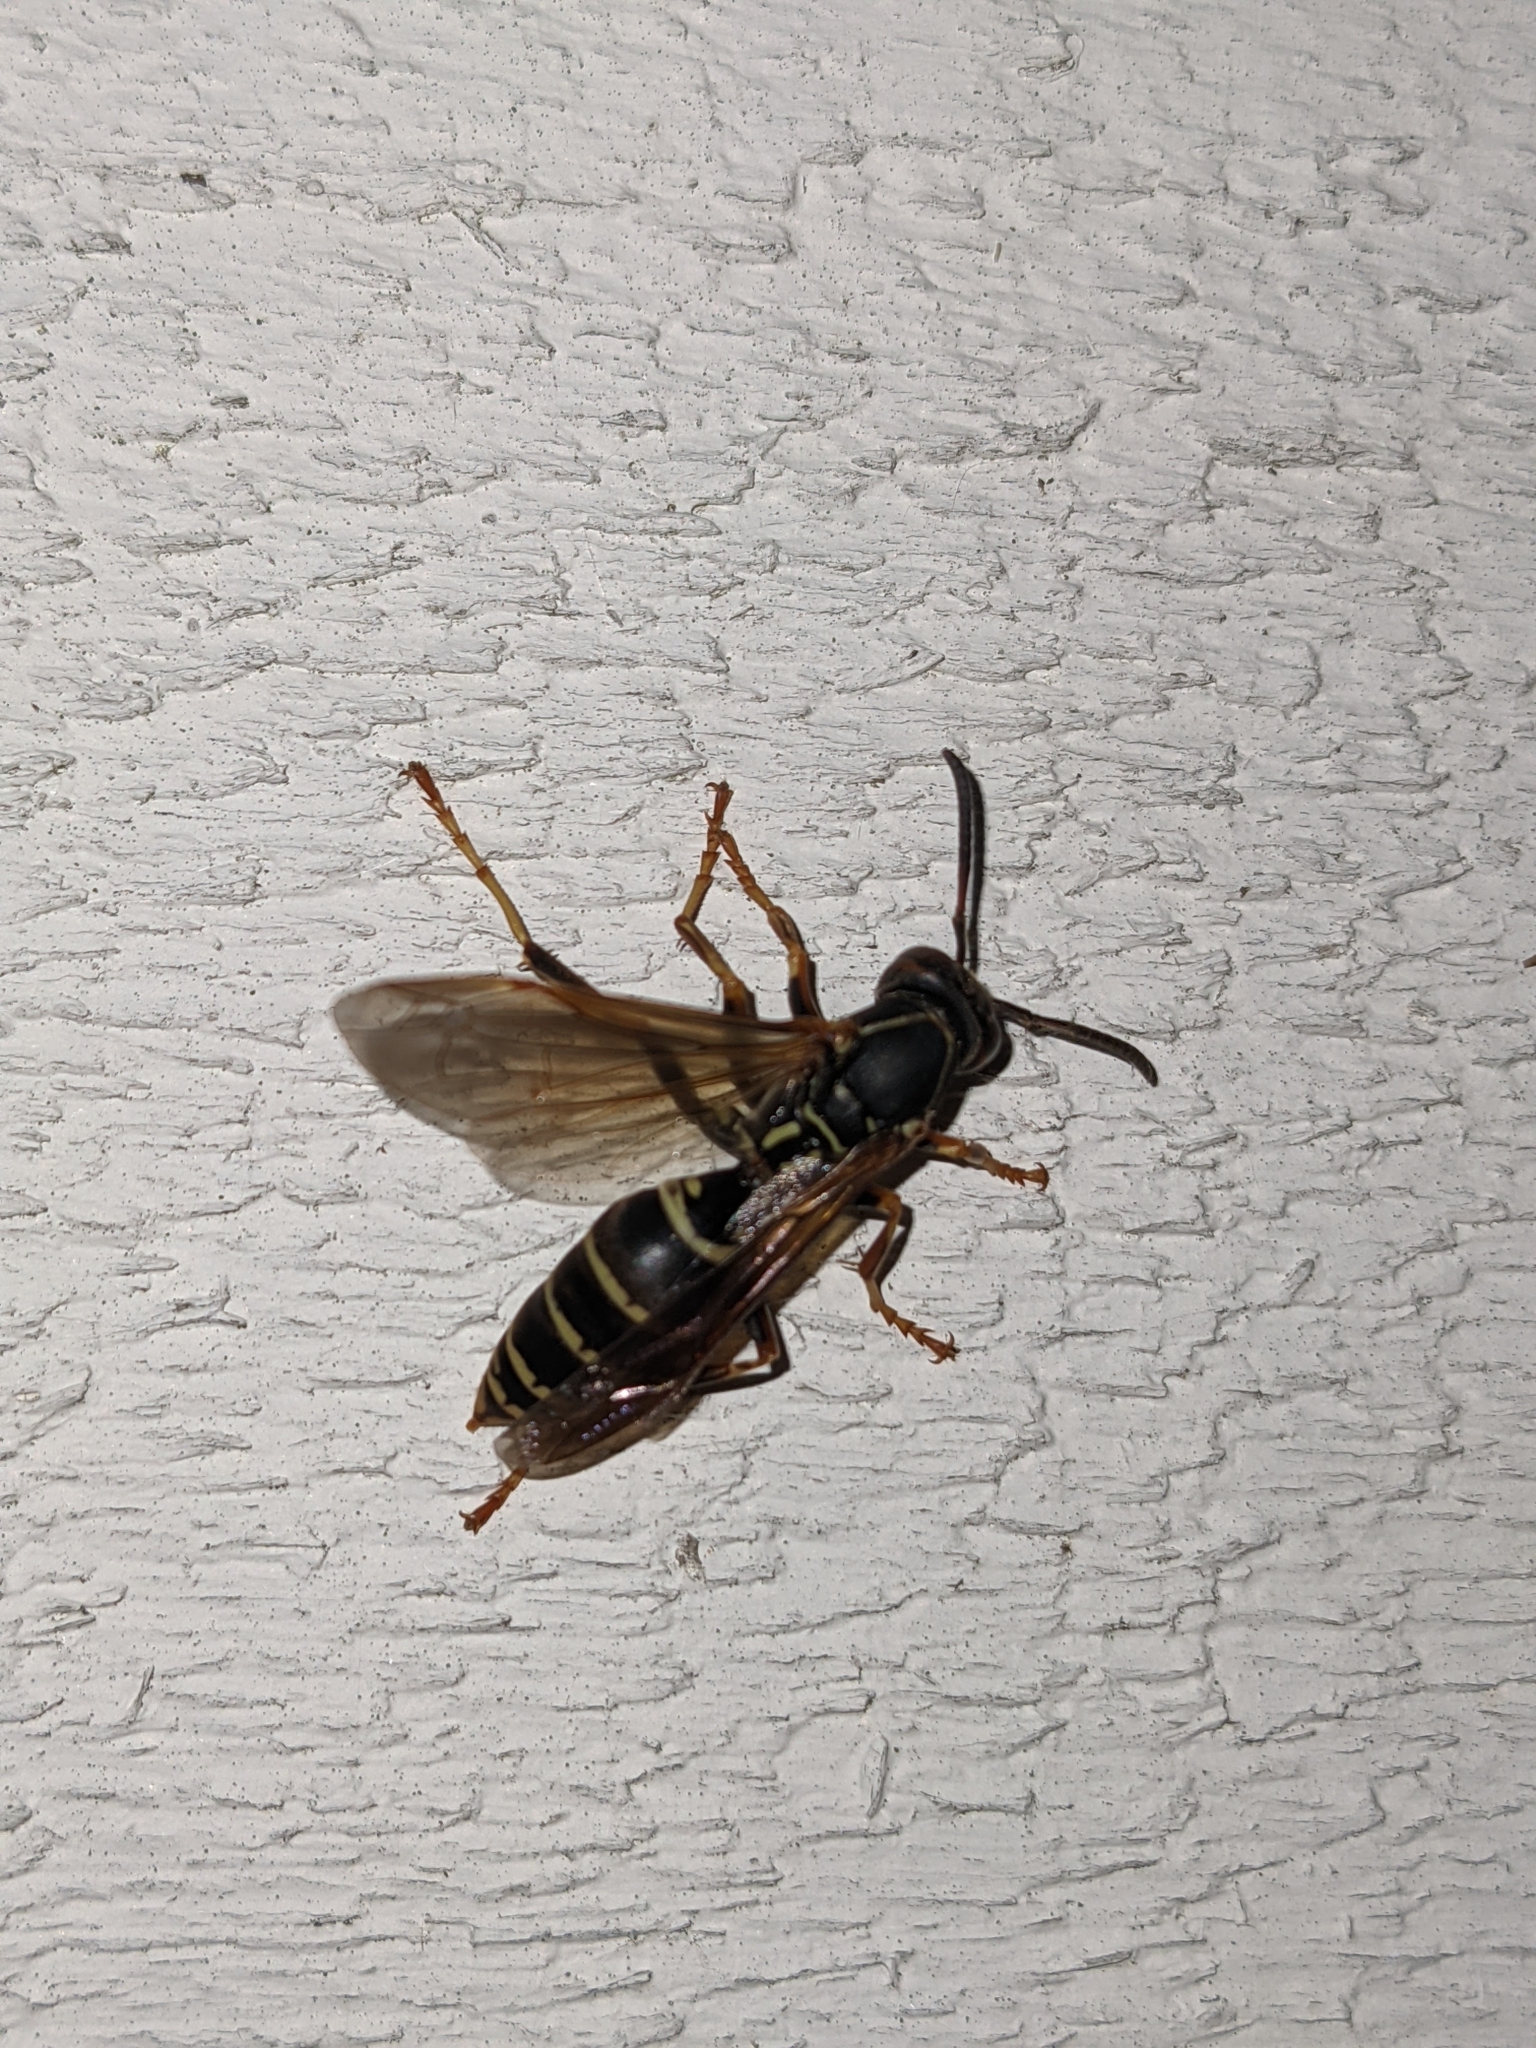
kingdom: Animalia
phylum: Arthropoda
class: Insecta
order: Hymenoptera
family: Eumenidae
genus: Polistes
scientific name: Polistes fuscatus
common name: Dark paper wasp
